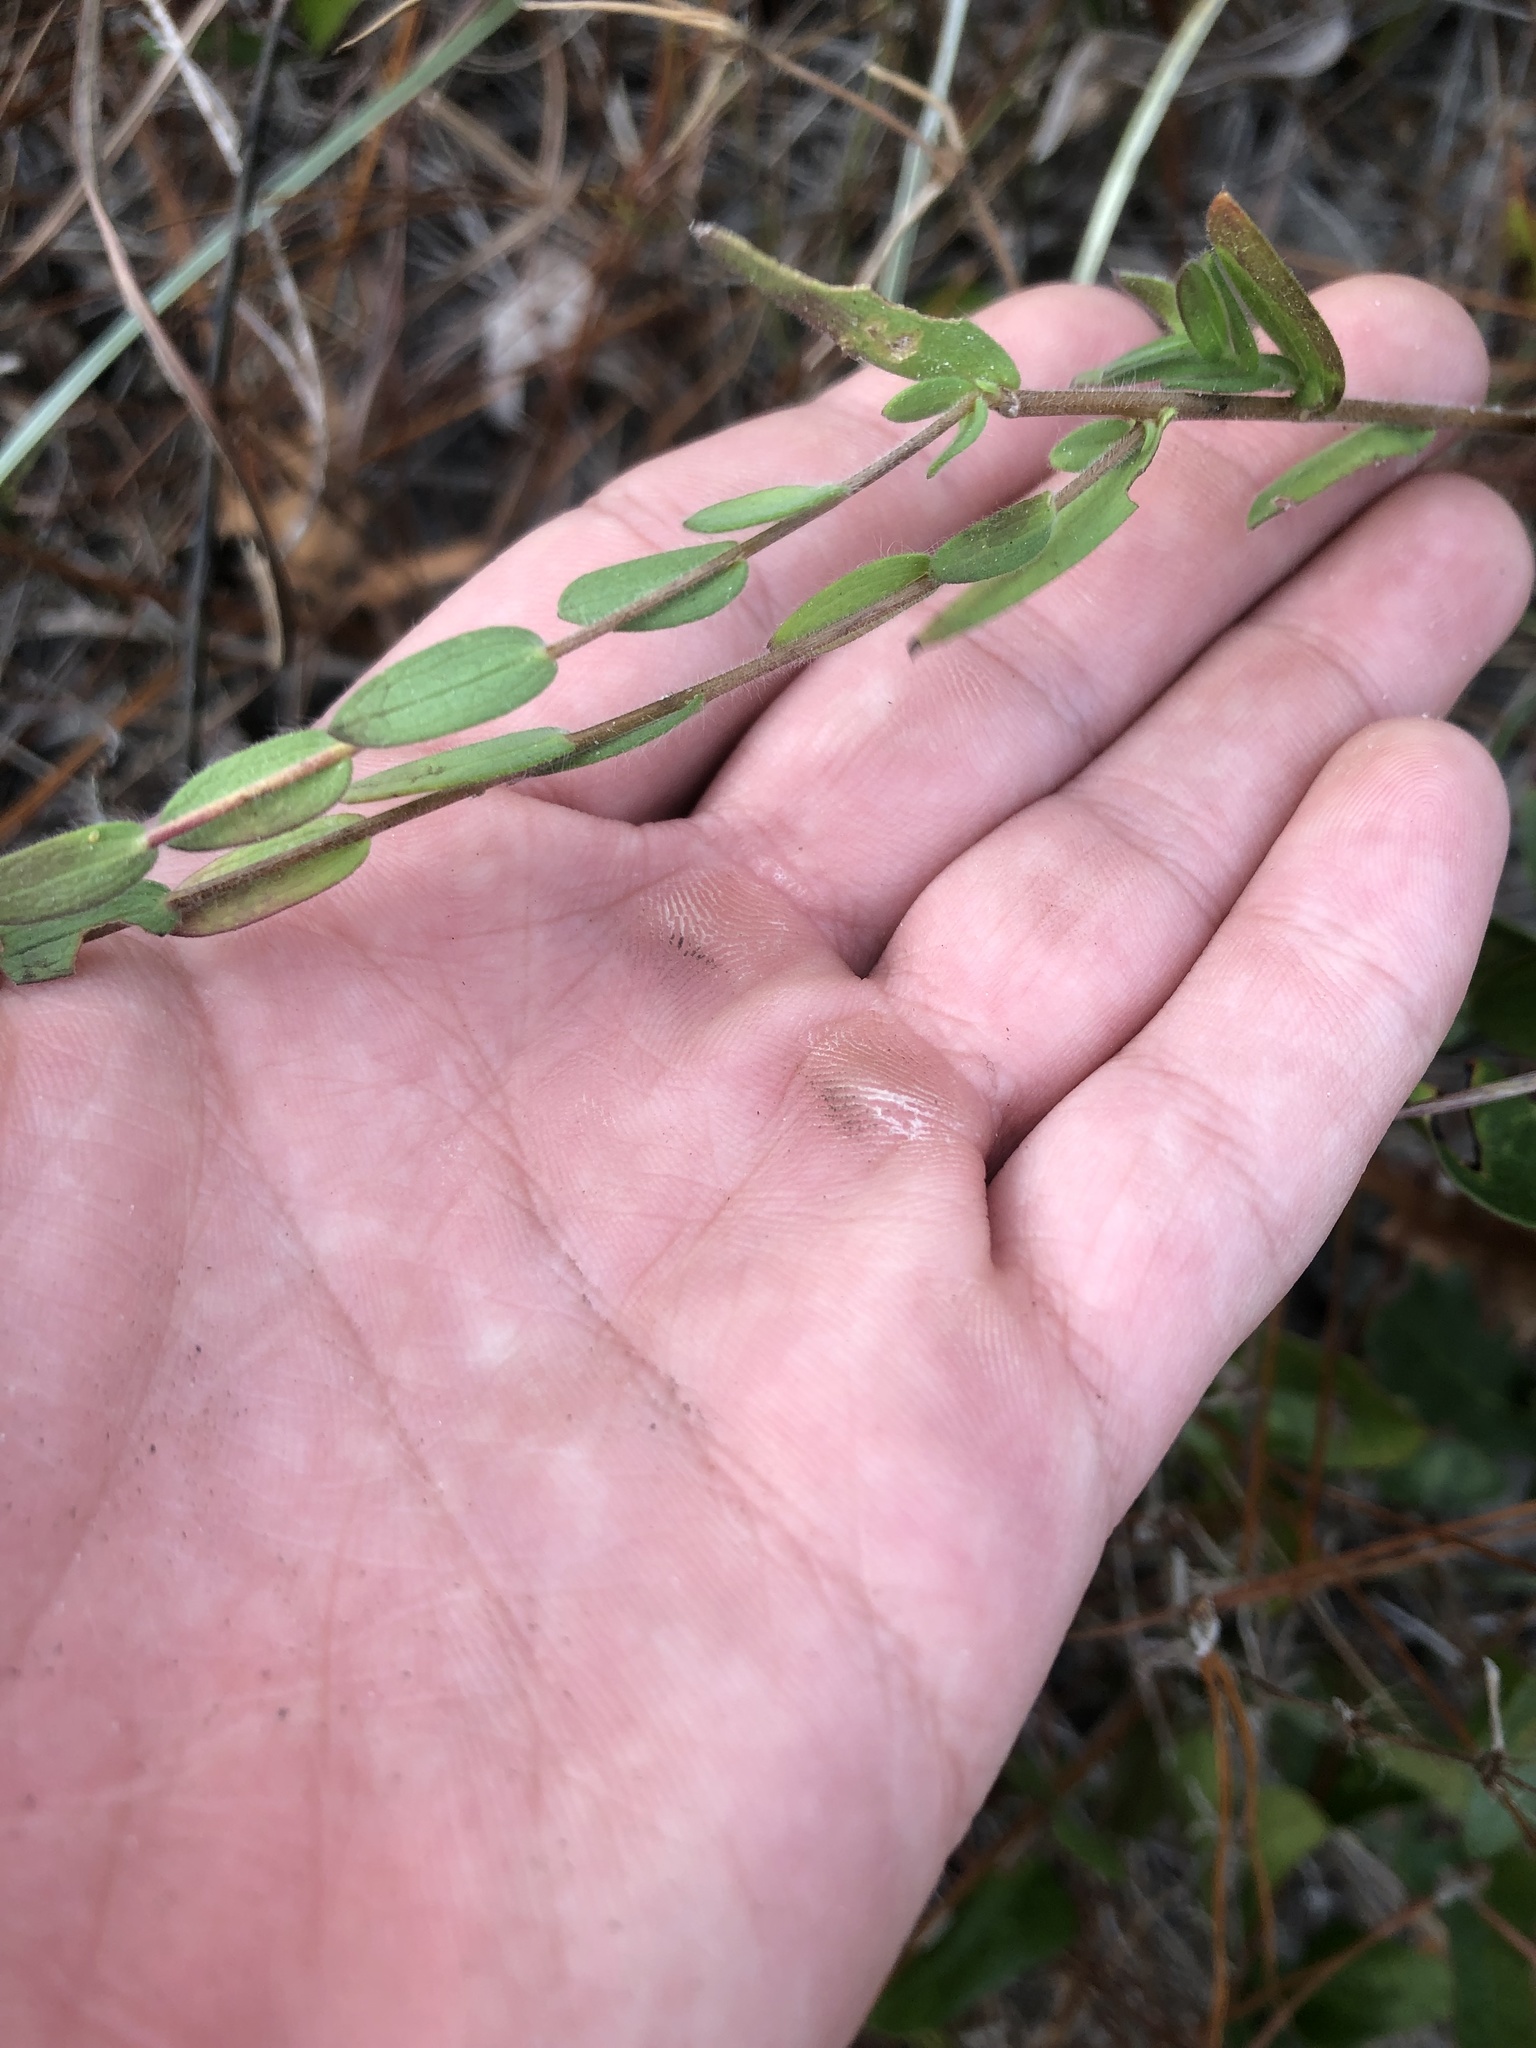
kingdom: Plantae
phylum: Tracheophyta
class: Magnoliopsida
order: Asterales
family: Asteraceae
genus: Symphyotrichum
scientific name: Symphyotrichum concolor
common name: Eastern silver aster
